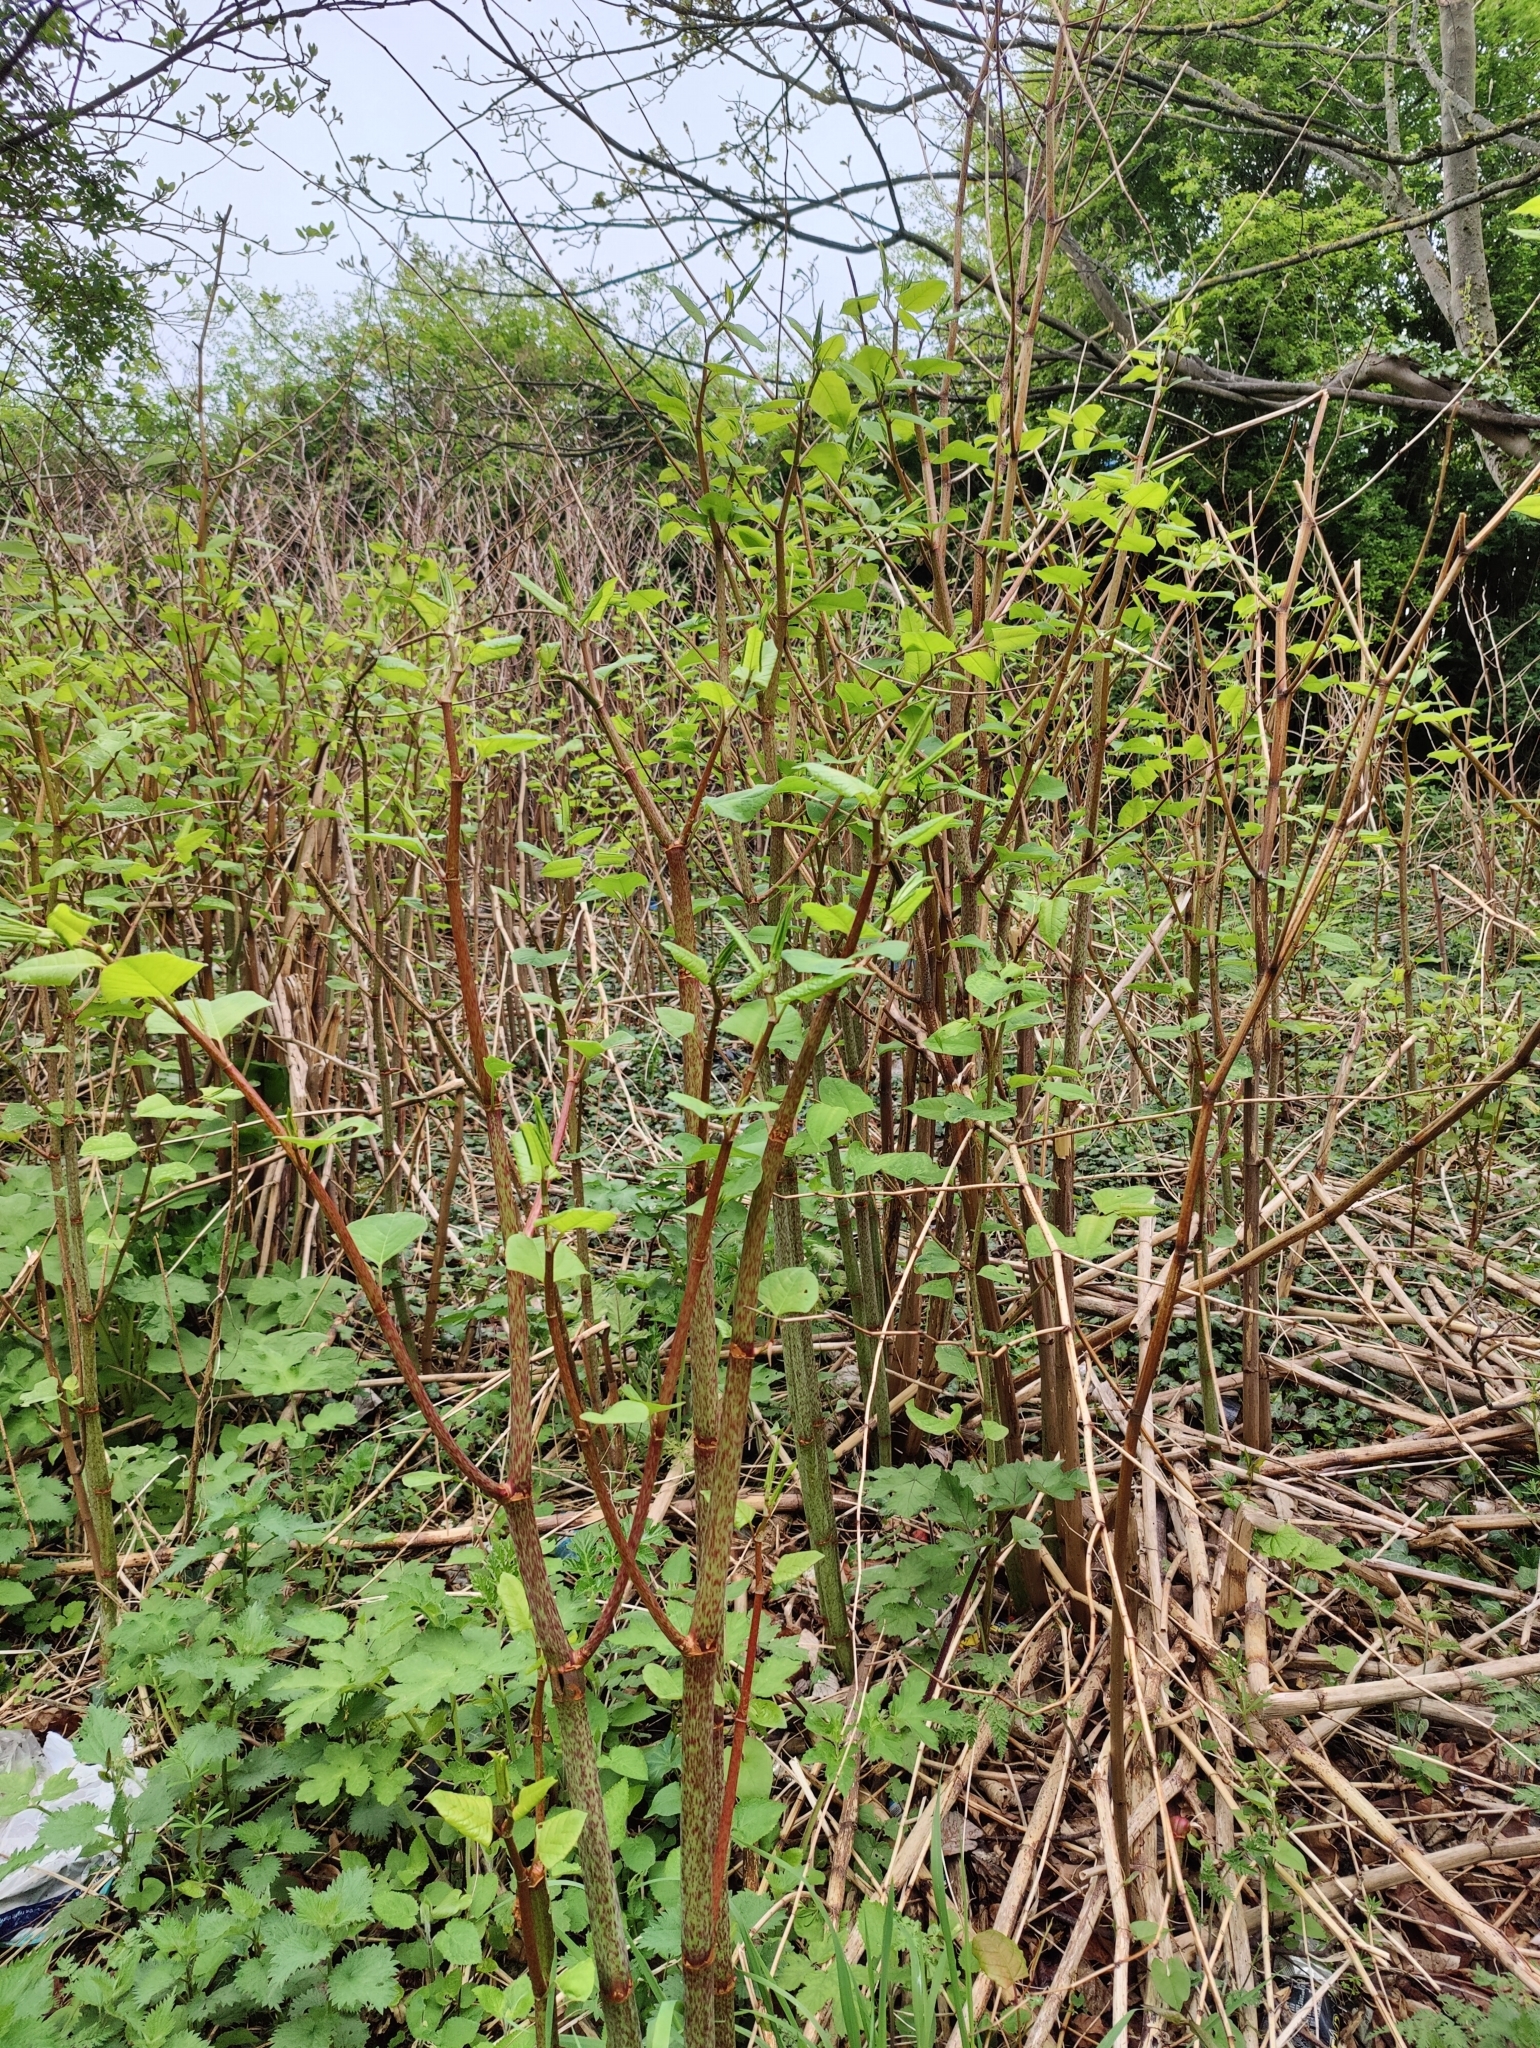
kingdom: Plantae
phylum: Tracheophyta
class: Magnoliopsida
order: Caryophyllales
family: Polygonaceae
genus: Reynoutria
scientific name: Reynoutria japonica
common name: Japanese knotweed
